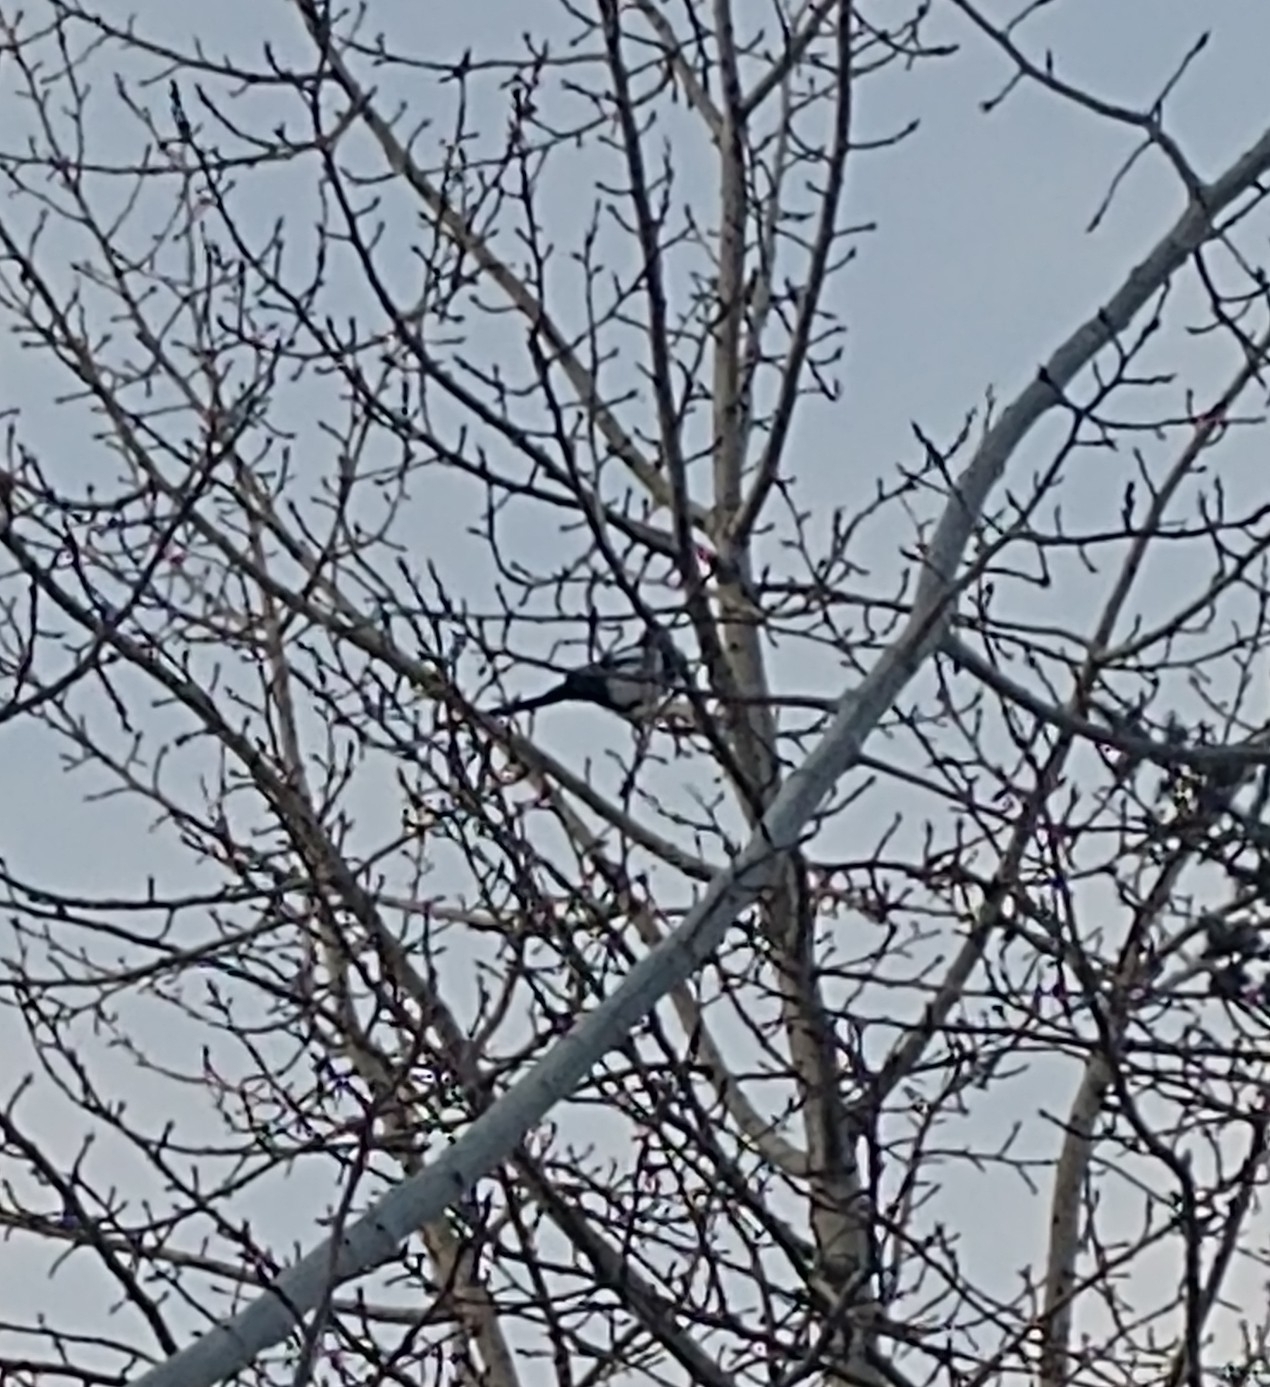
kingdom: Animalia
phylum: Chordata
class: Aves
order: Passeriformes
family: Corvidae
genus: Pica
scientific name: Pica hudsonia
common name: Black-billed magpie
